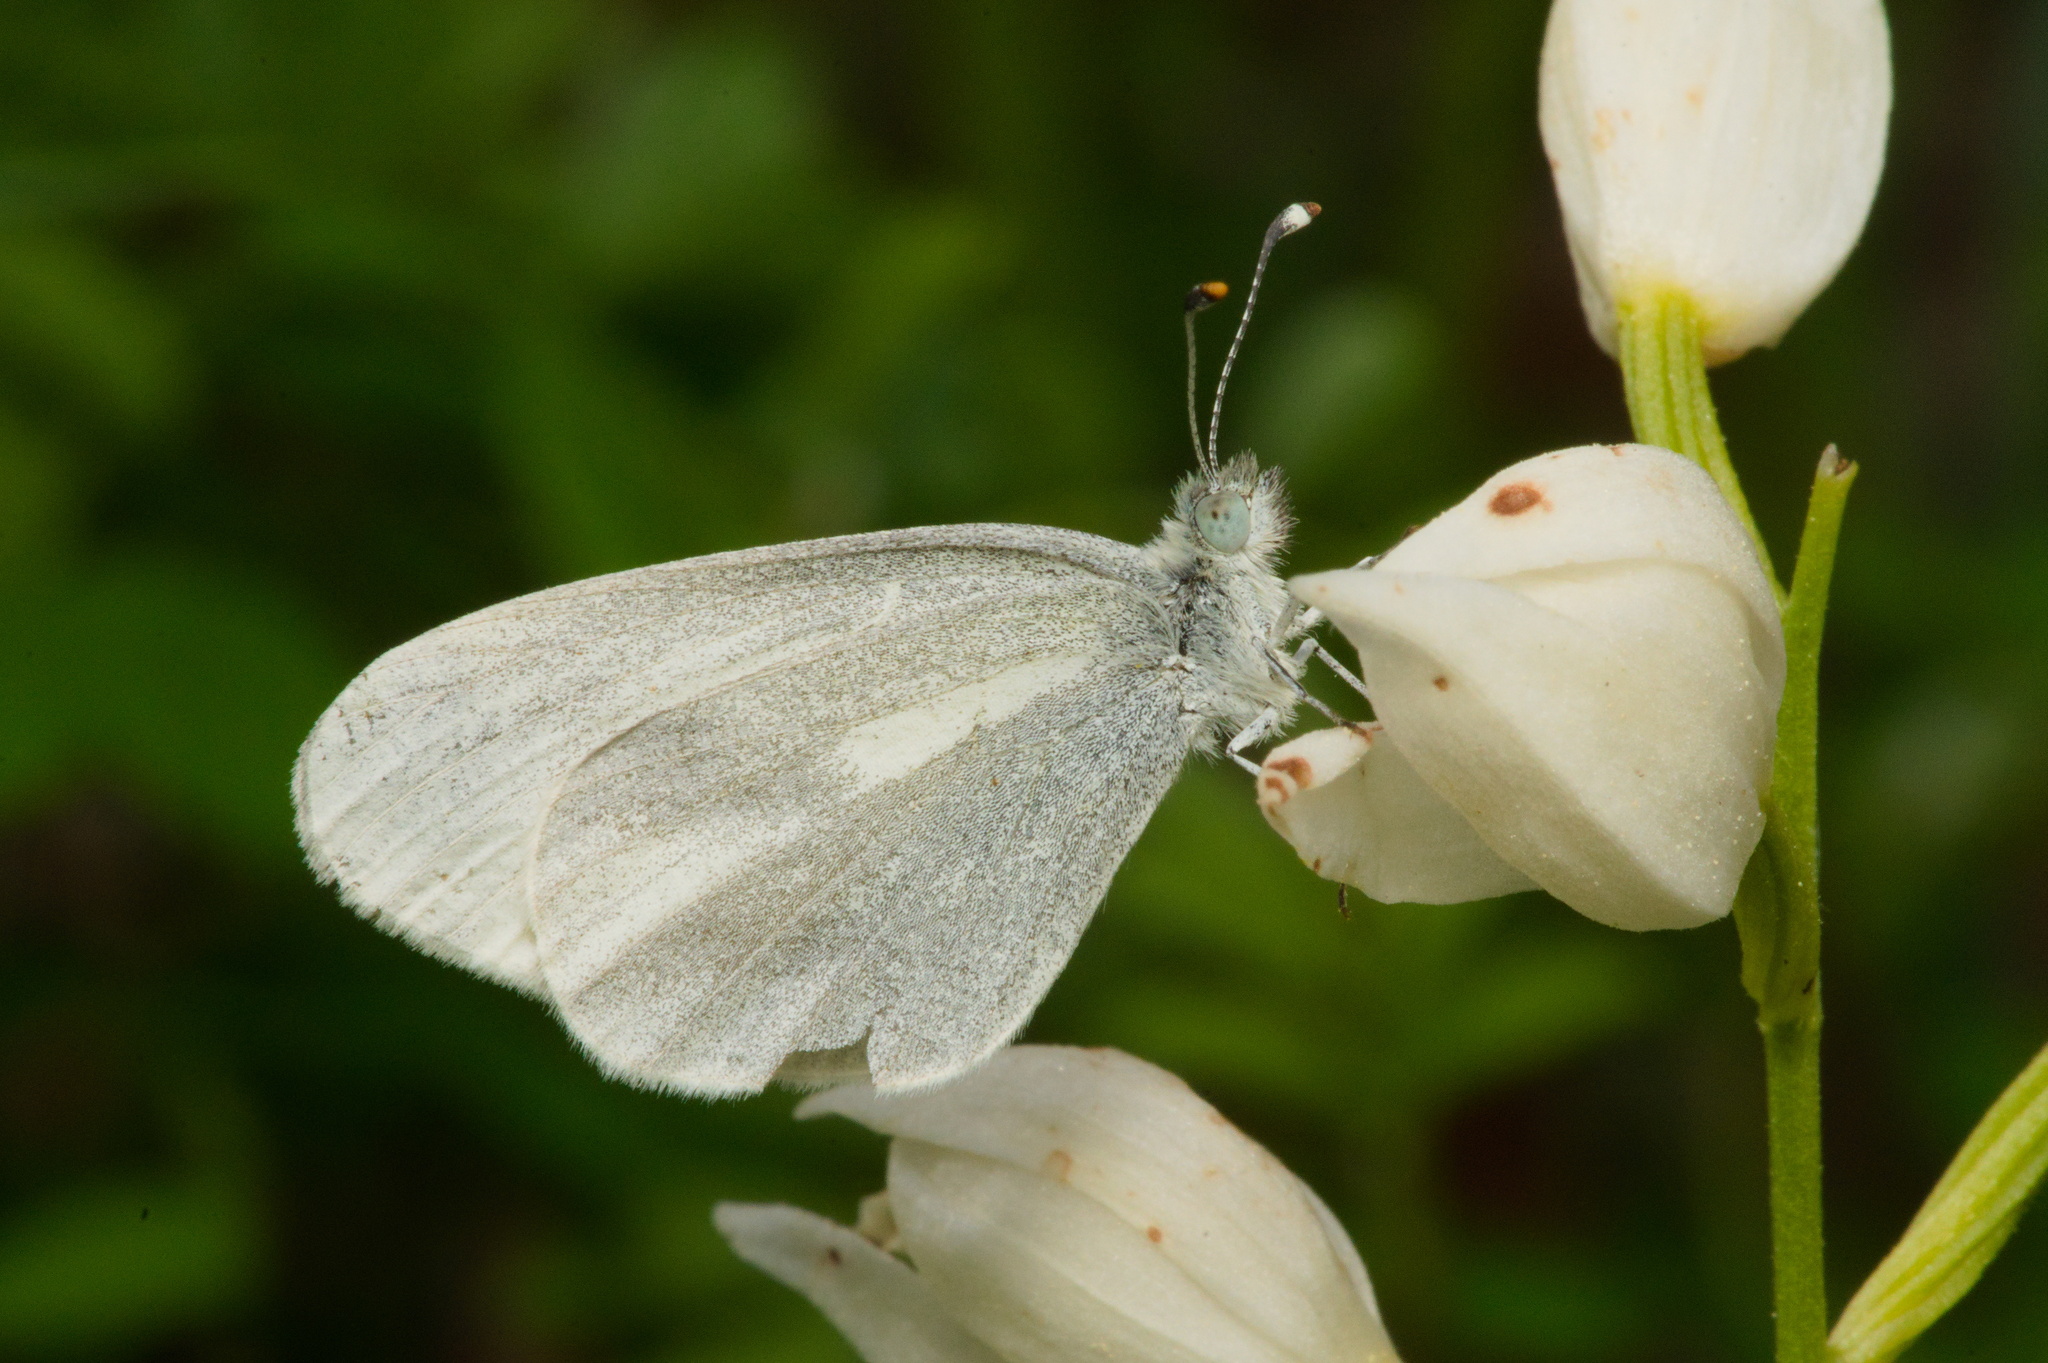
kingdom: Animalia
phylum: Arthropoda
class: Insecta
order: Lepidoptera
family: Pieridae
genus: Leptidea
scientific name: Leptidea
